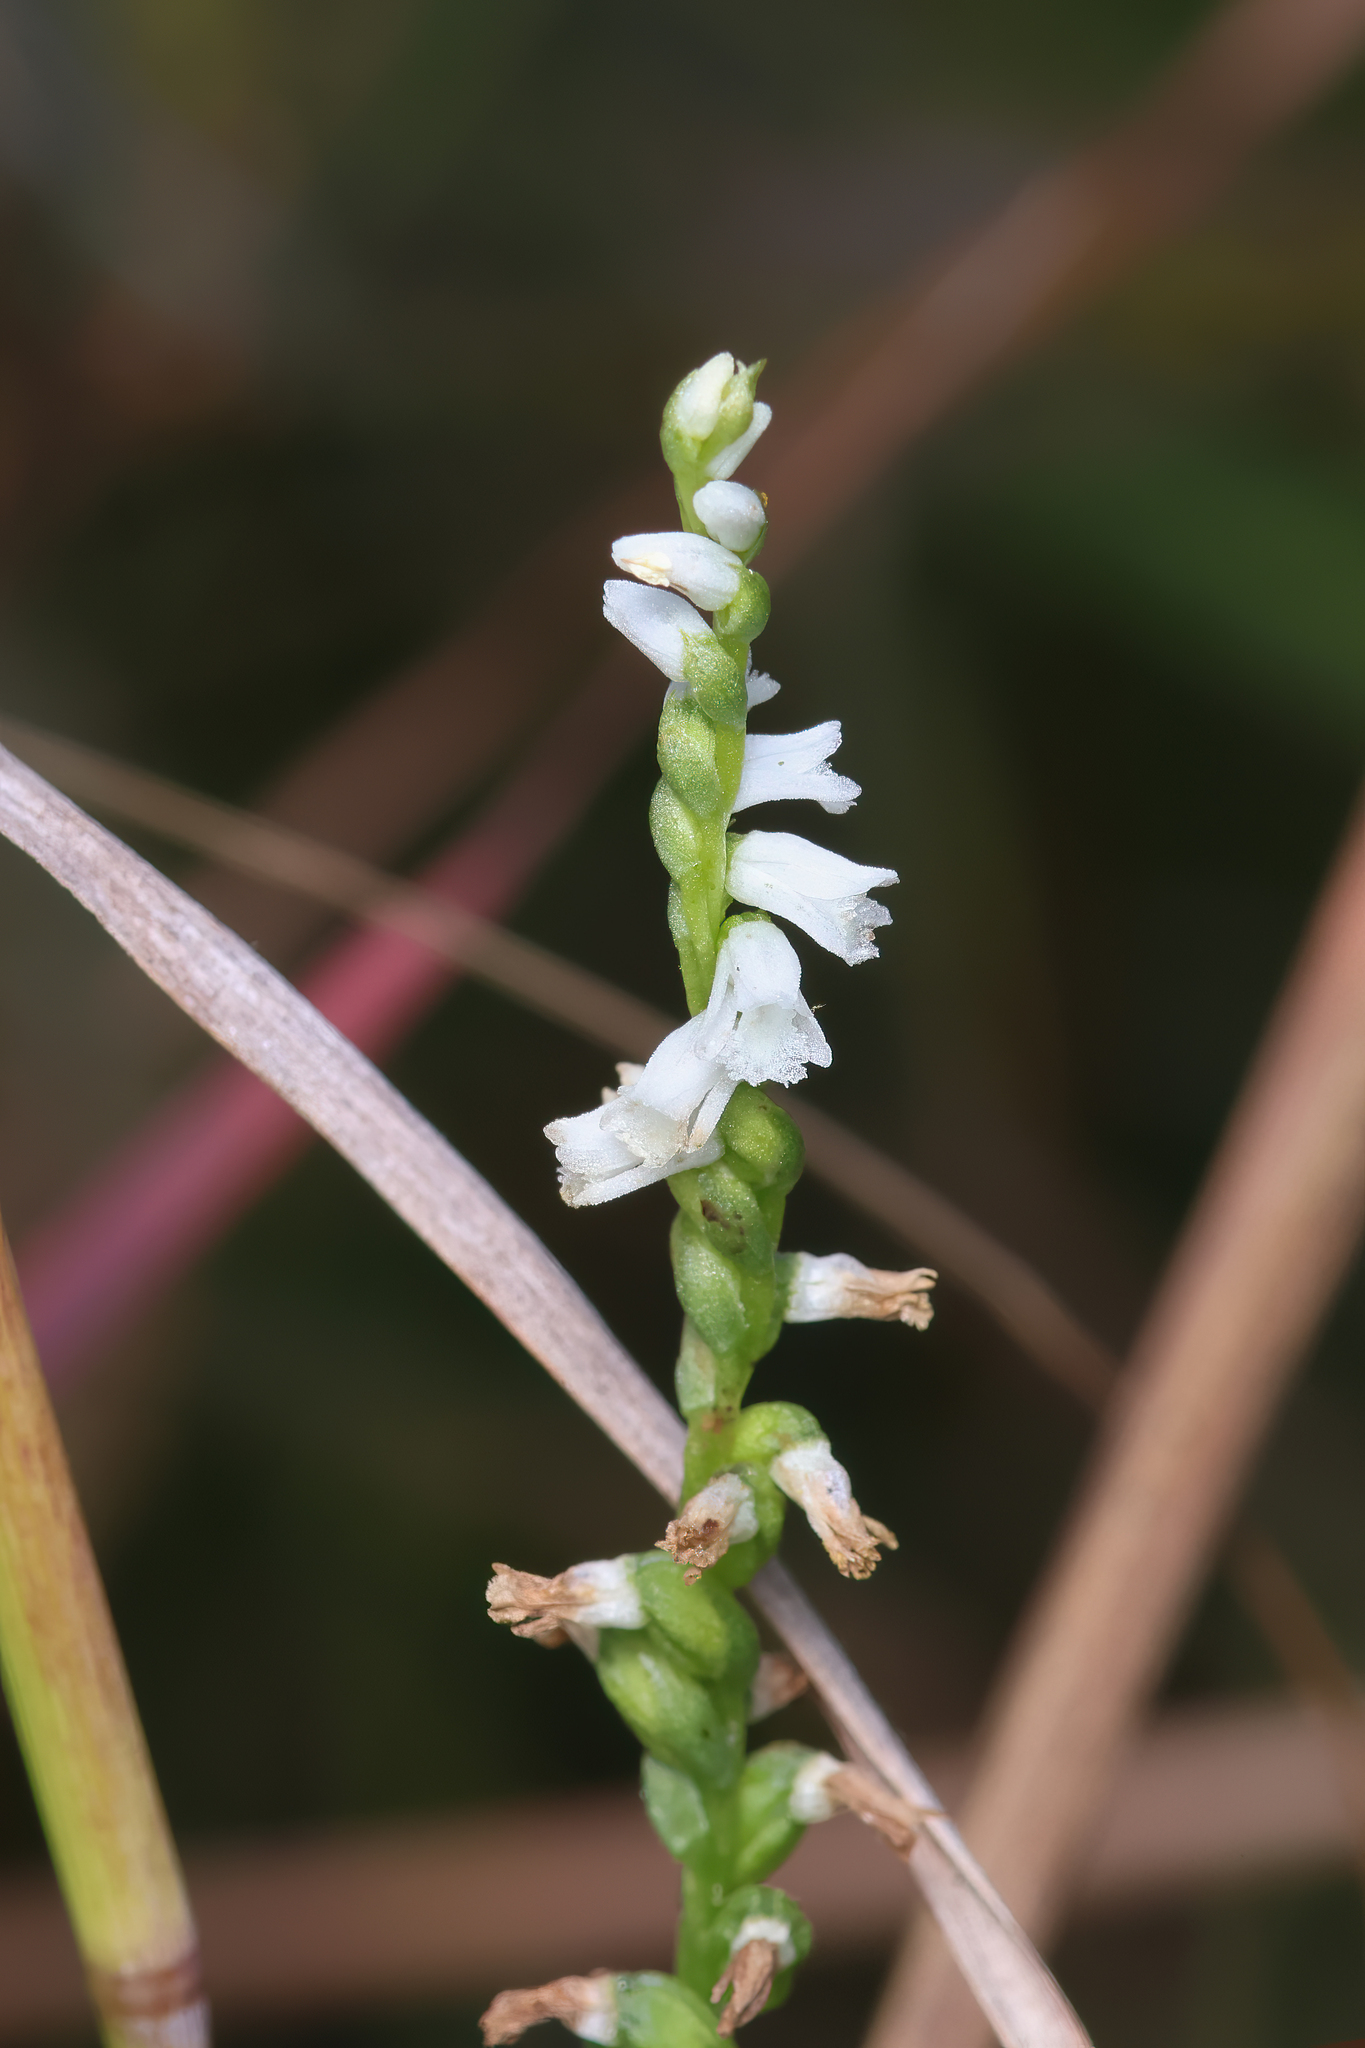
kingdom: Plantae
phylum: Tracheophyta
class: Liliopsida
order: Asparagales
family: Orchidaceae
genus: Spiranthes
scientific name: Spiranthes tuberosa
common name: Little ladies'-tresses
